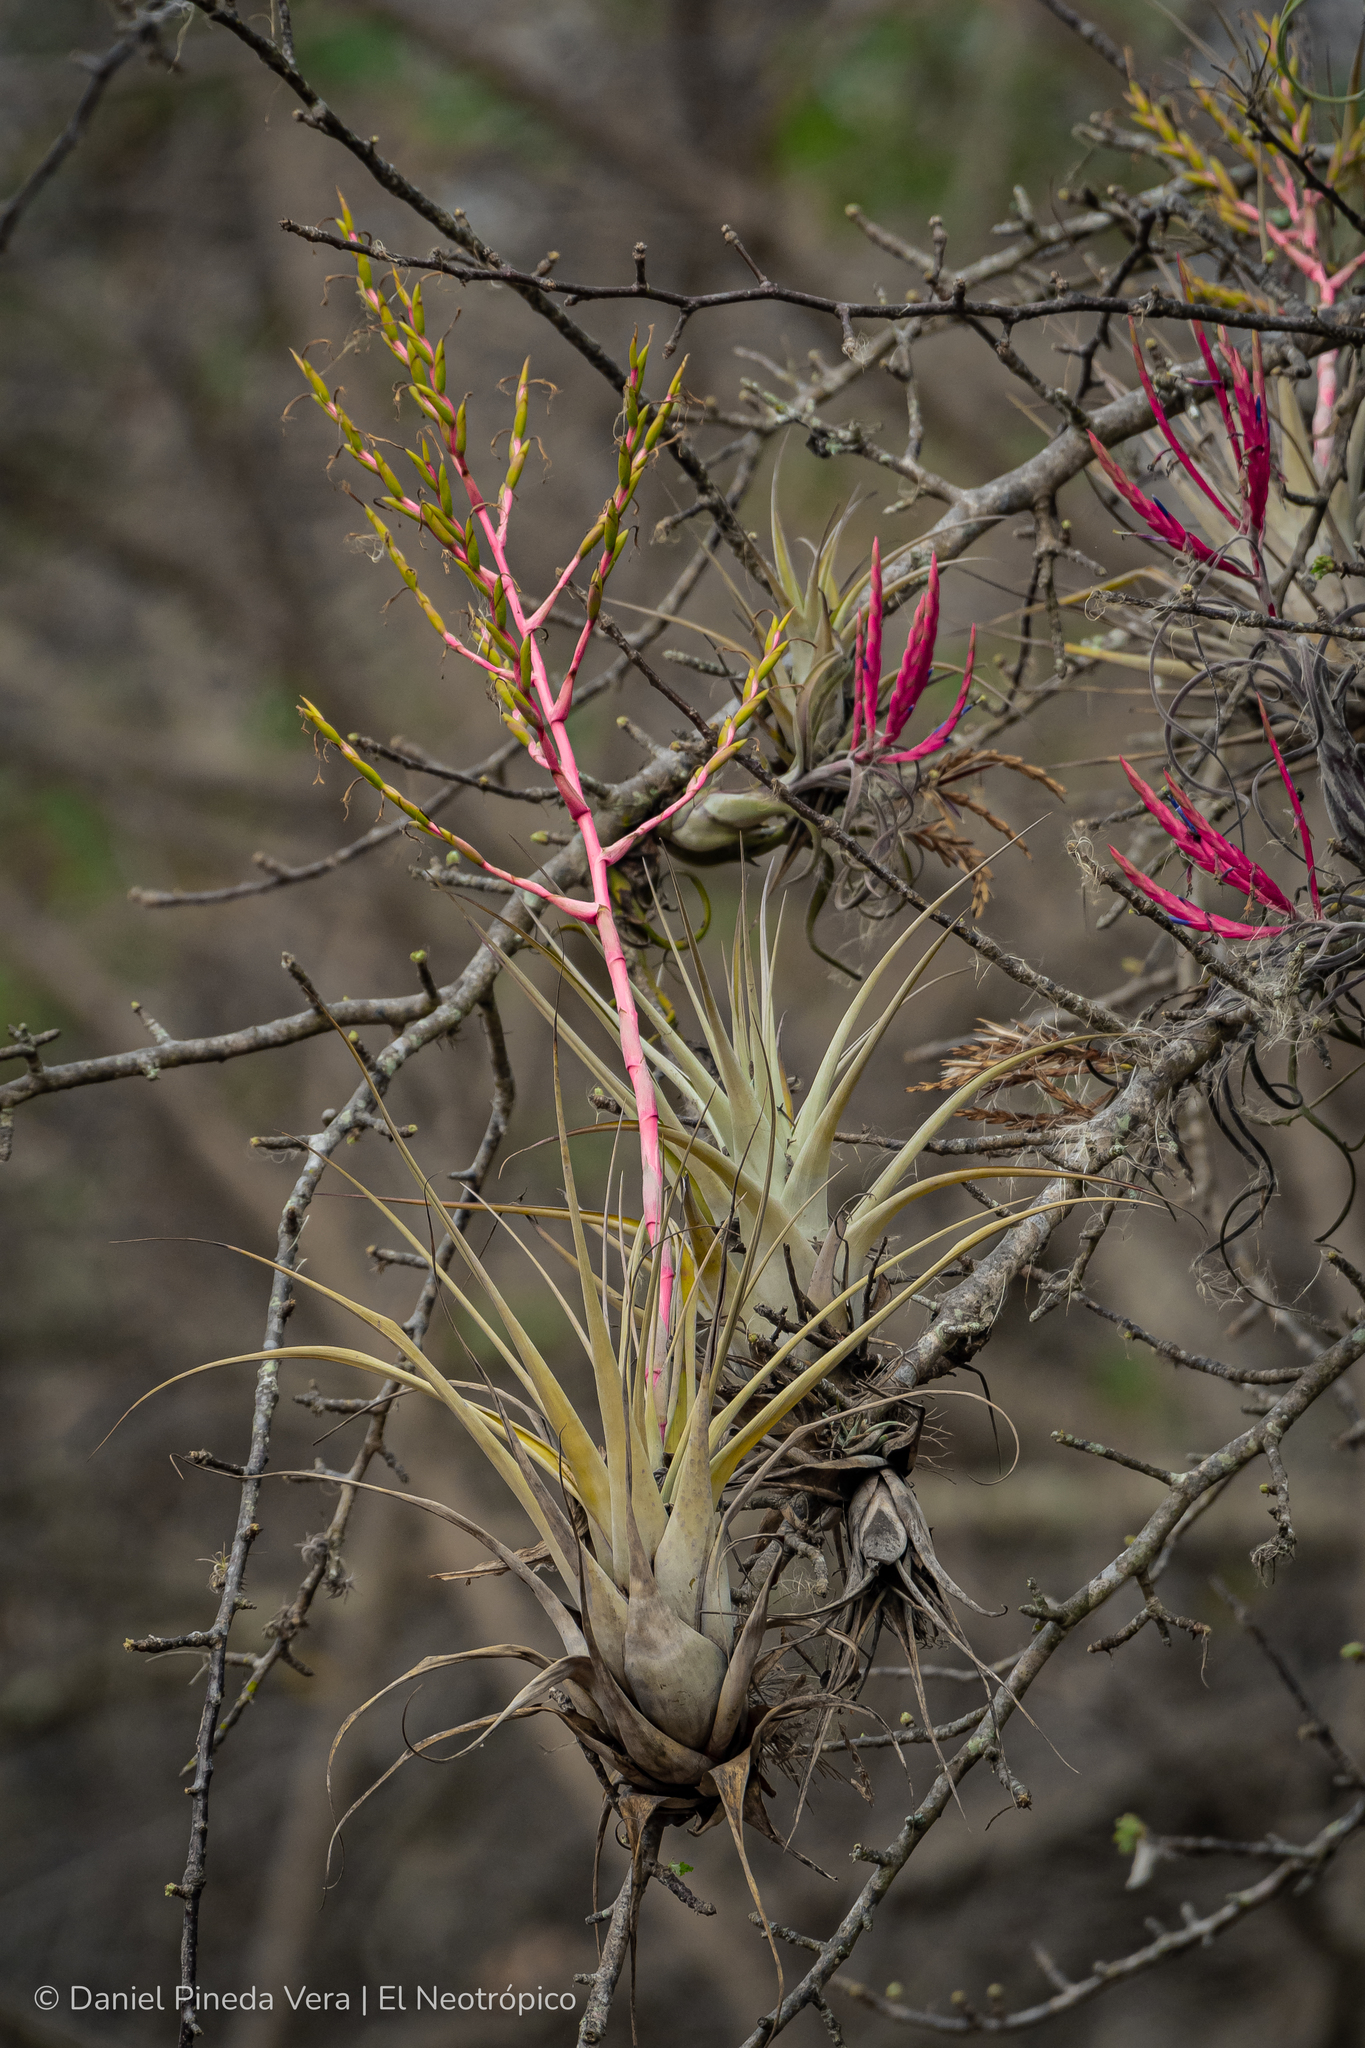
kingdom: Plantae
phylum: Tracheophyta
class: Liliopsida
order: Poales
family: Bromeliaceae
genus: Tillandsia
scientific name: Tillandsia cucaensis
